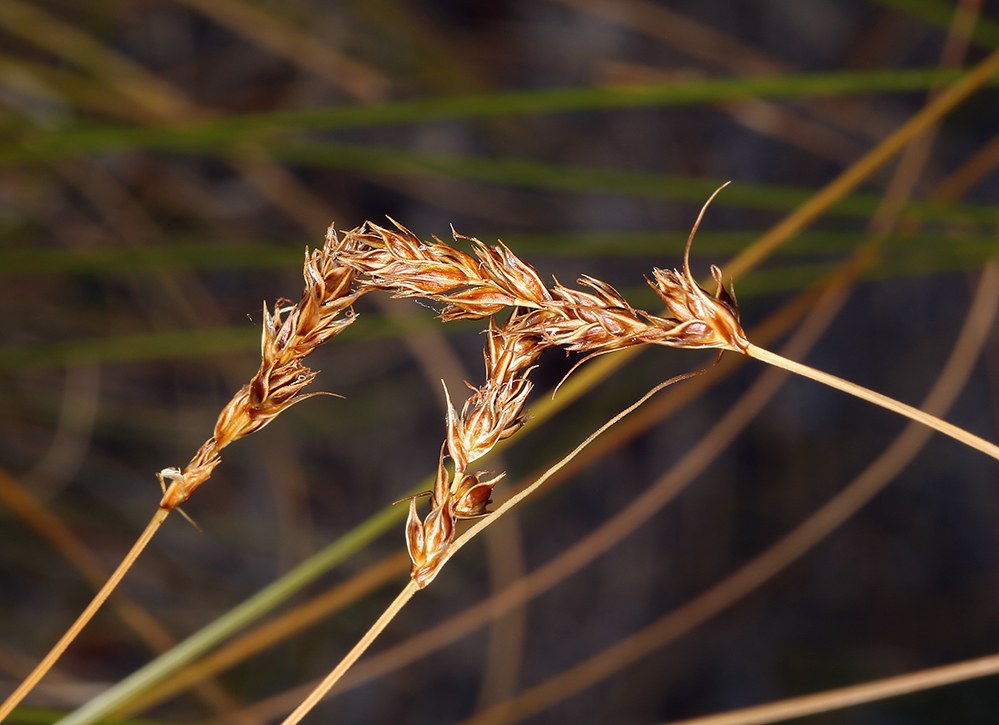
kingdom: Plantae
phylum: Tracheophyta
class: Liliopsida
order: Poales
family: Cyperaceae
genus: Carex
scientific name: Carex occidentalis
